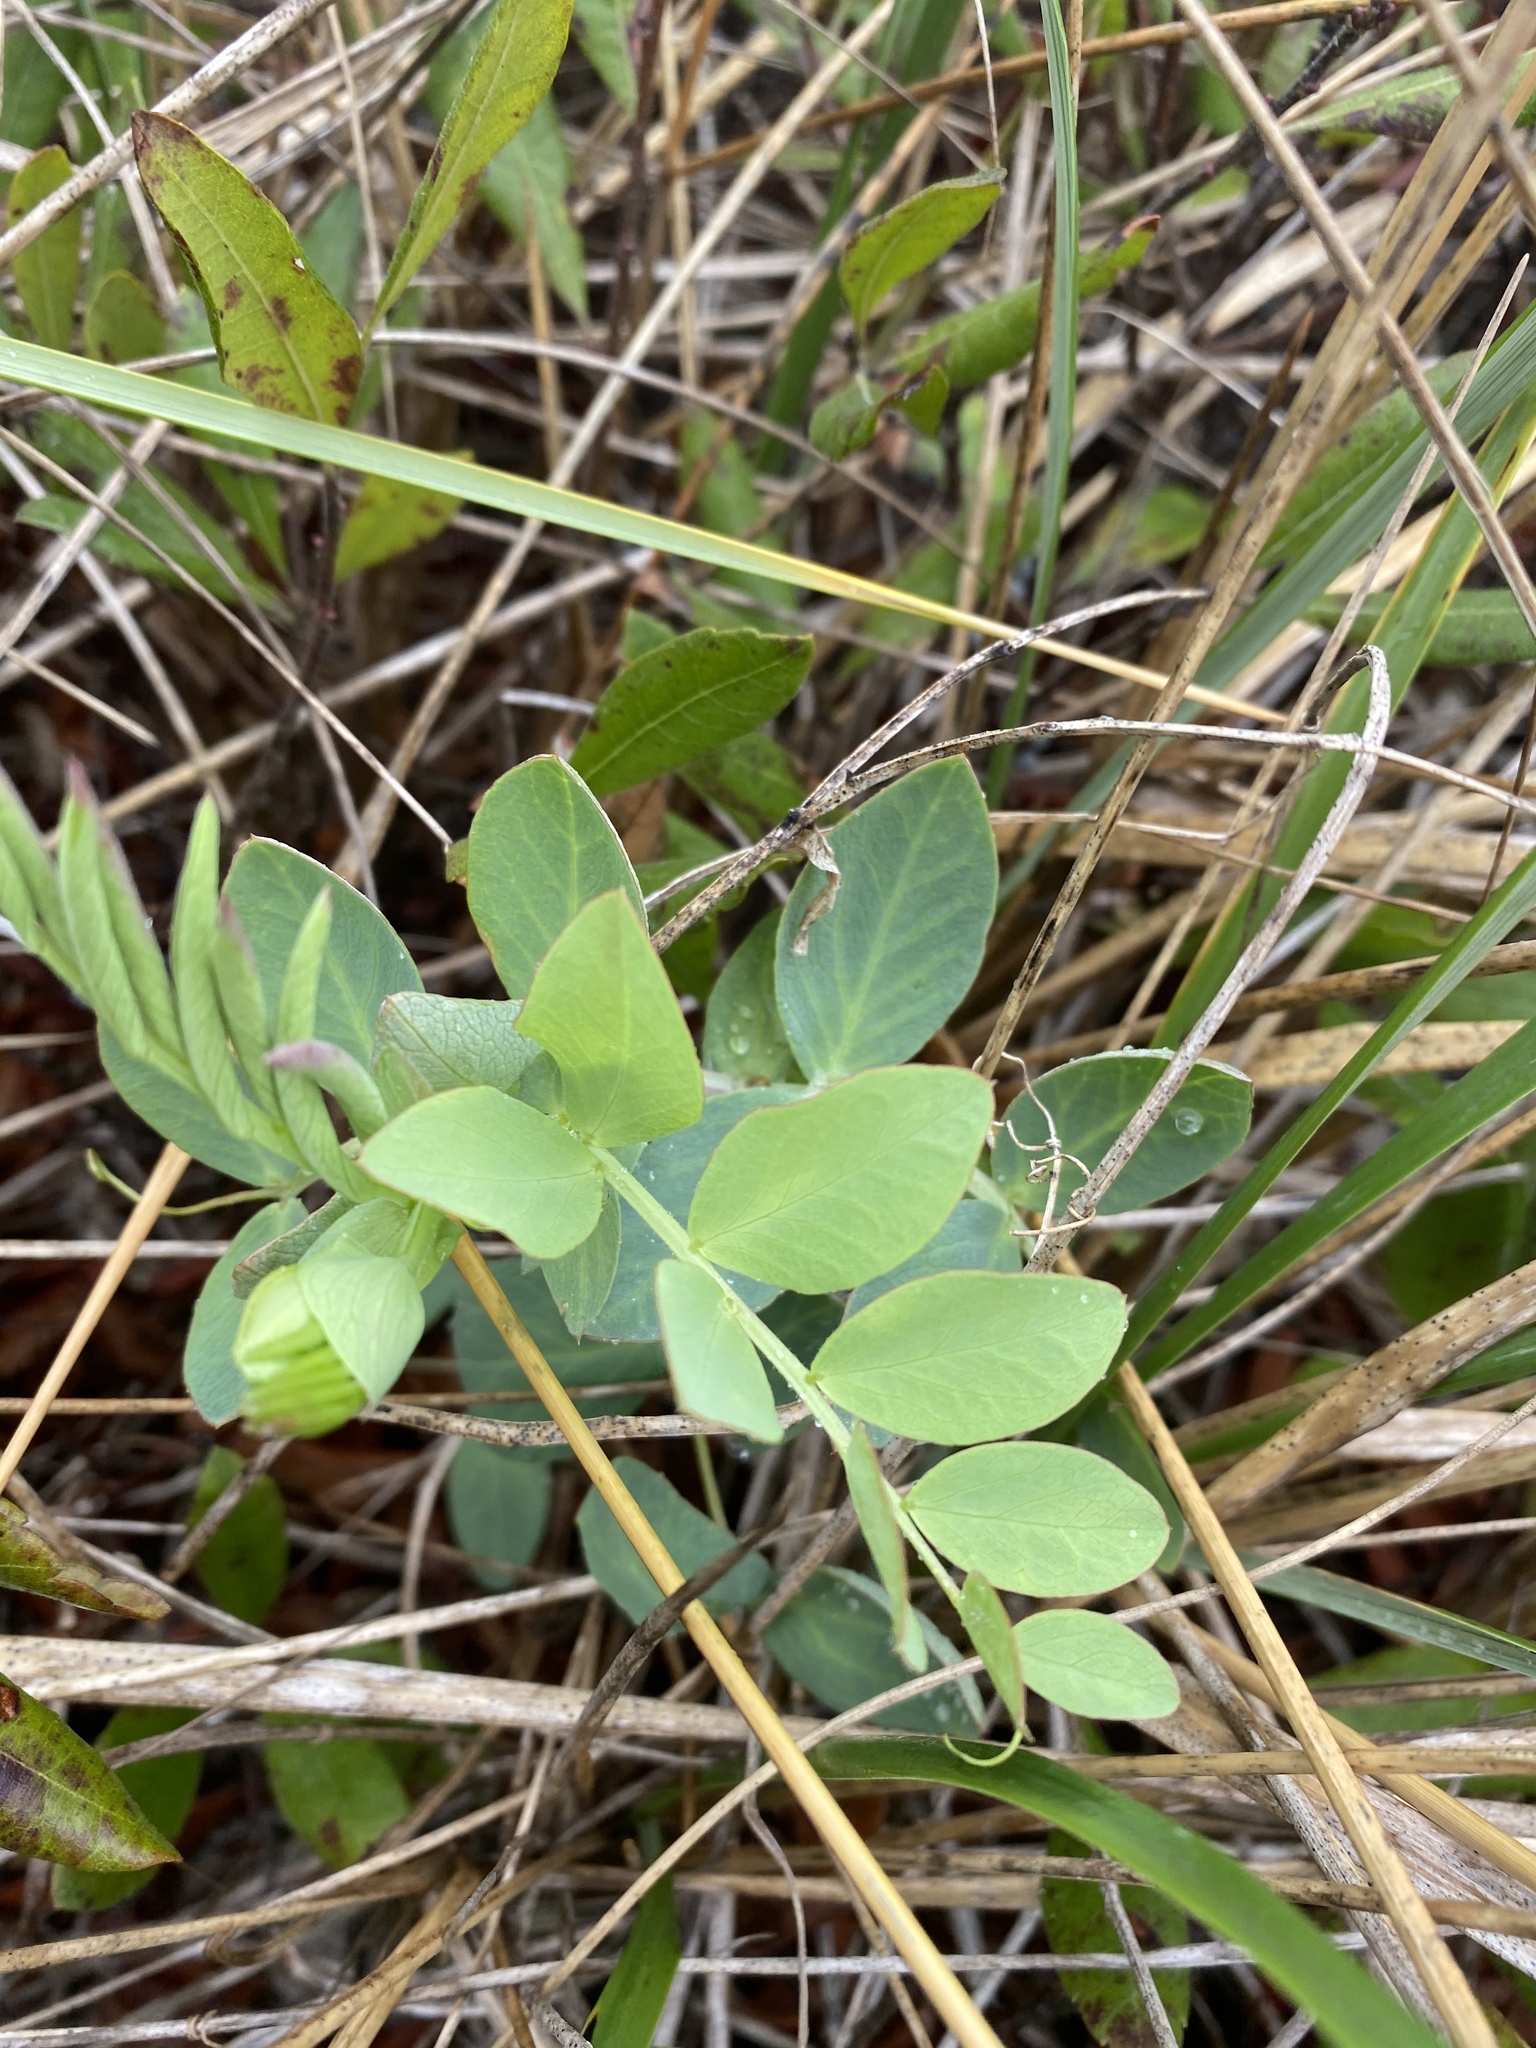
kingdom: Plantae
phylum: Tracheophyta
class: Magnoliopsida
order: Fabales
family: Fabaceae
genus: Lathyrus
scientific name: Lathyrus japonicus
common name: Sea pea
